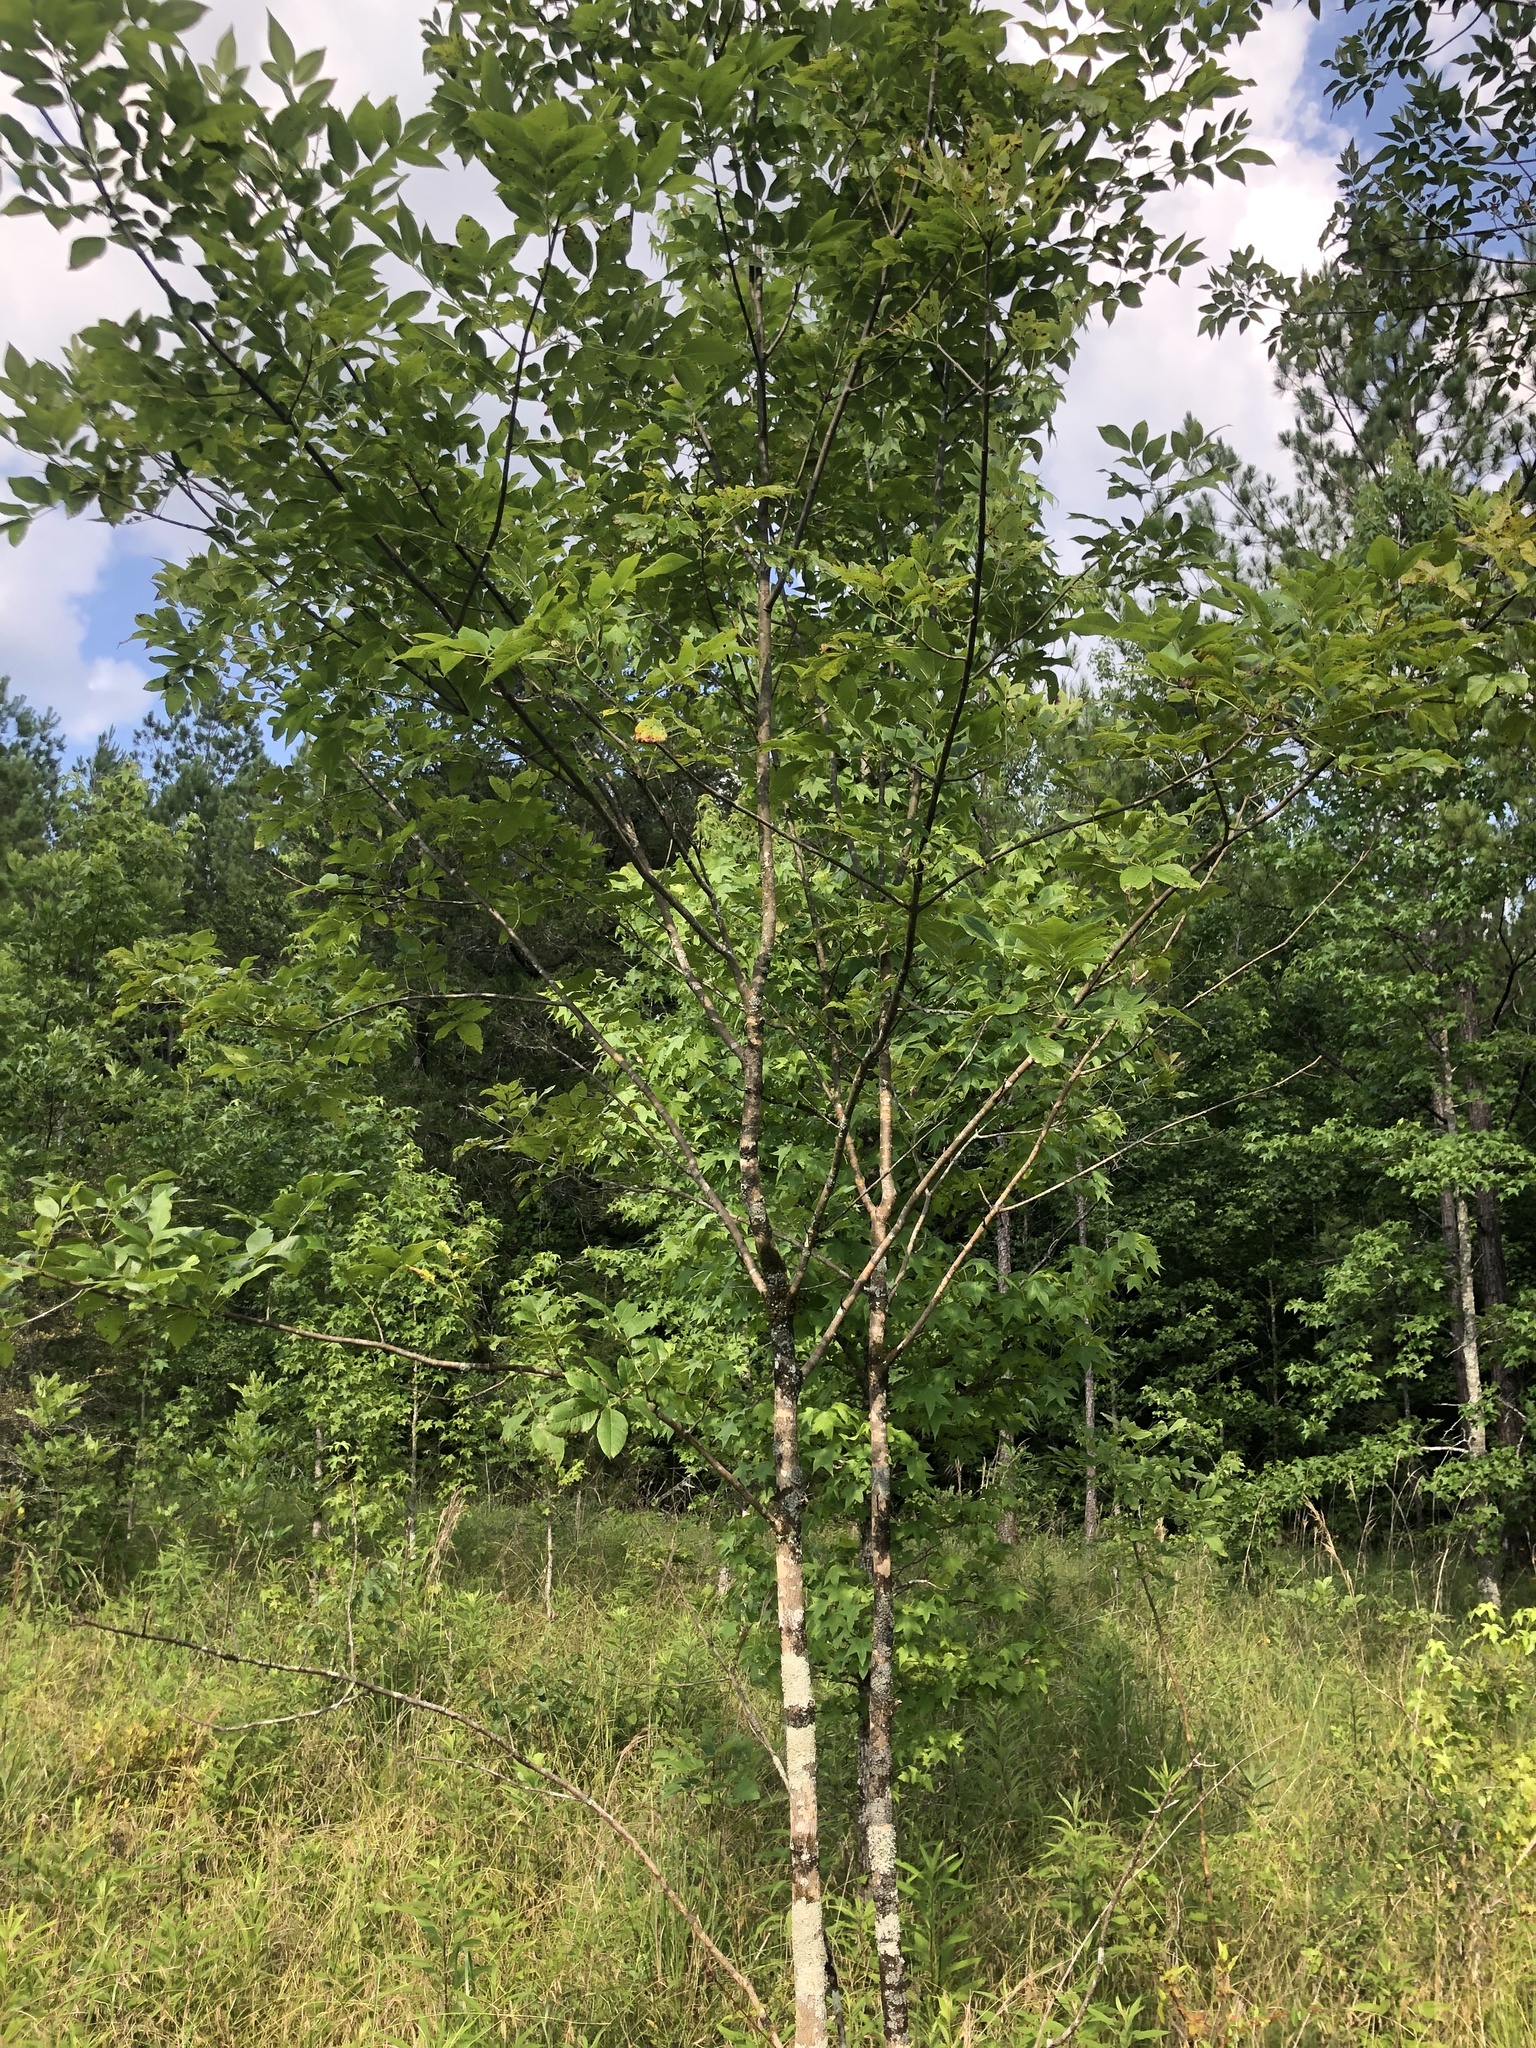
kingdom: Plantae
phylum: Tracheophyta
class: Magnoliopsida
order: Lamiales
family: Oleaceae
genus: Fraxinus
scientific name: Fraxinus pennsylvanica
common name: Green ash
